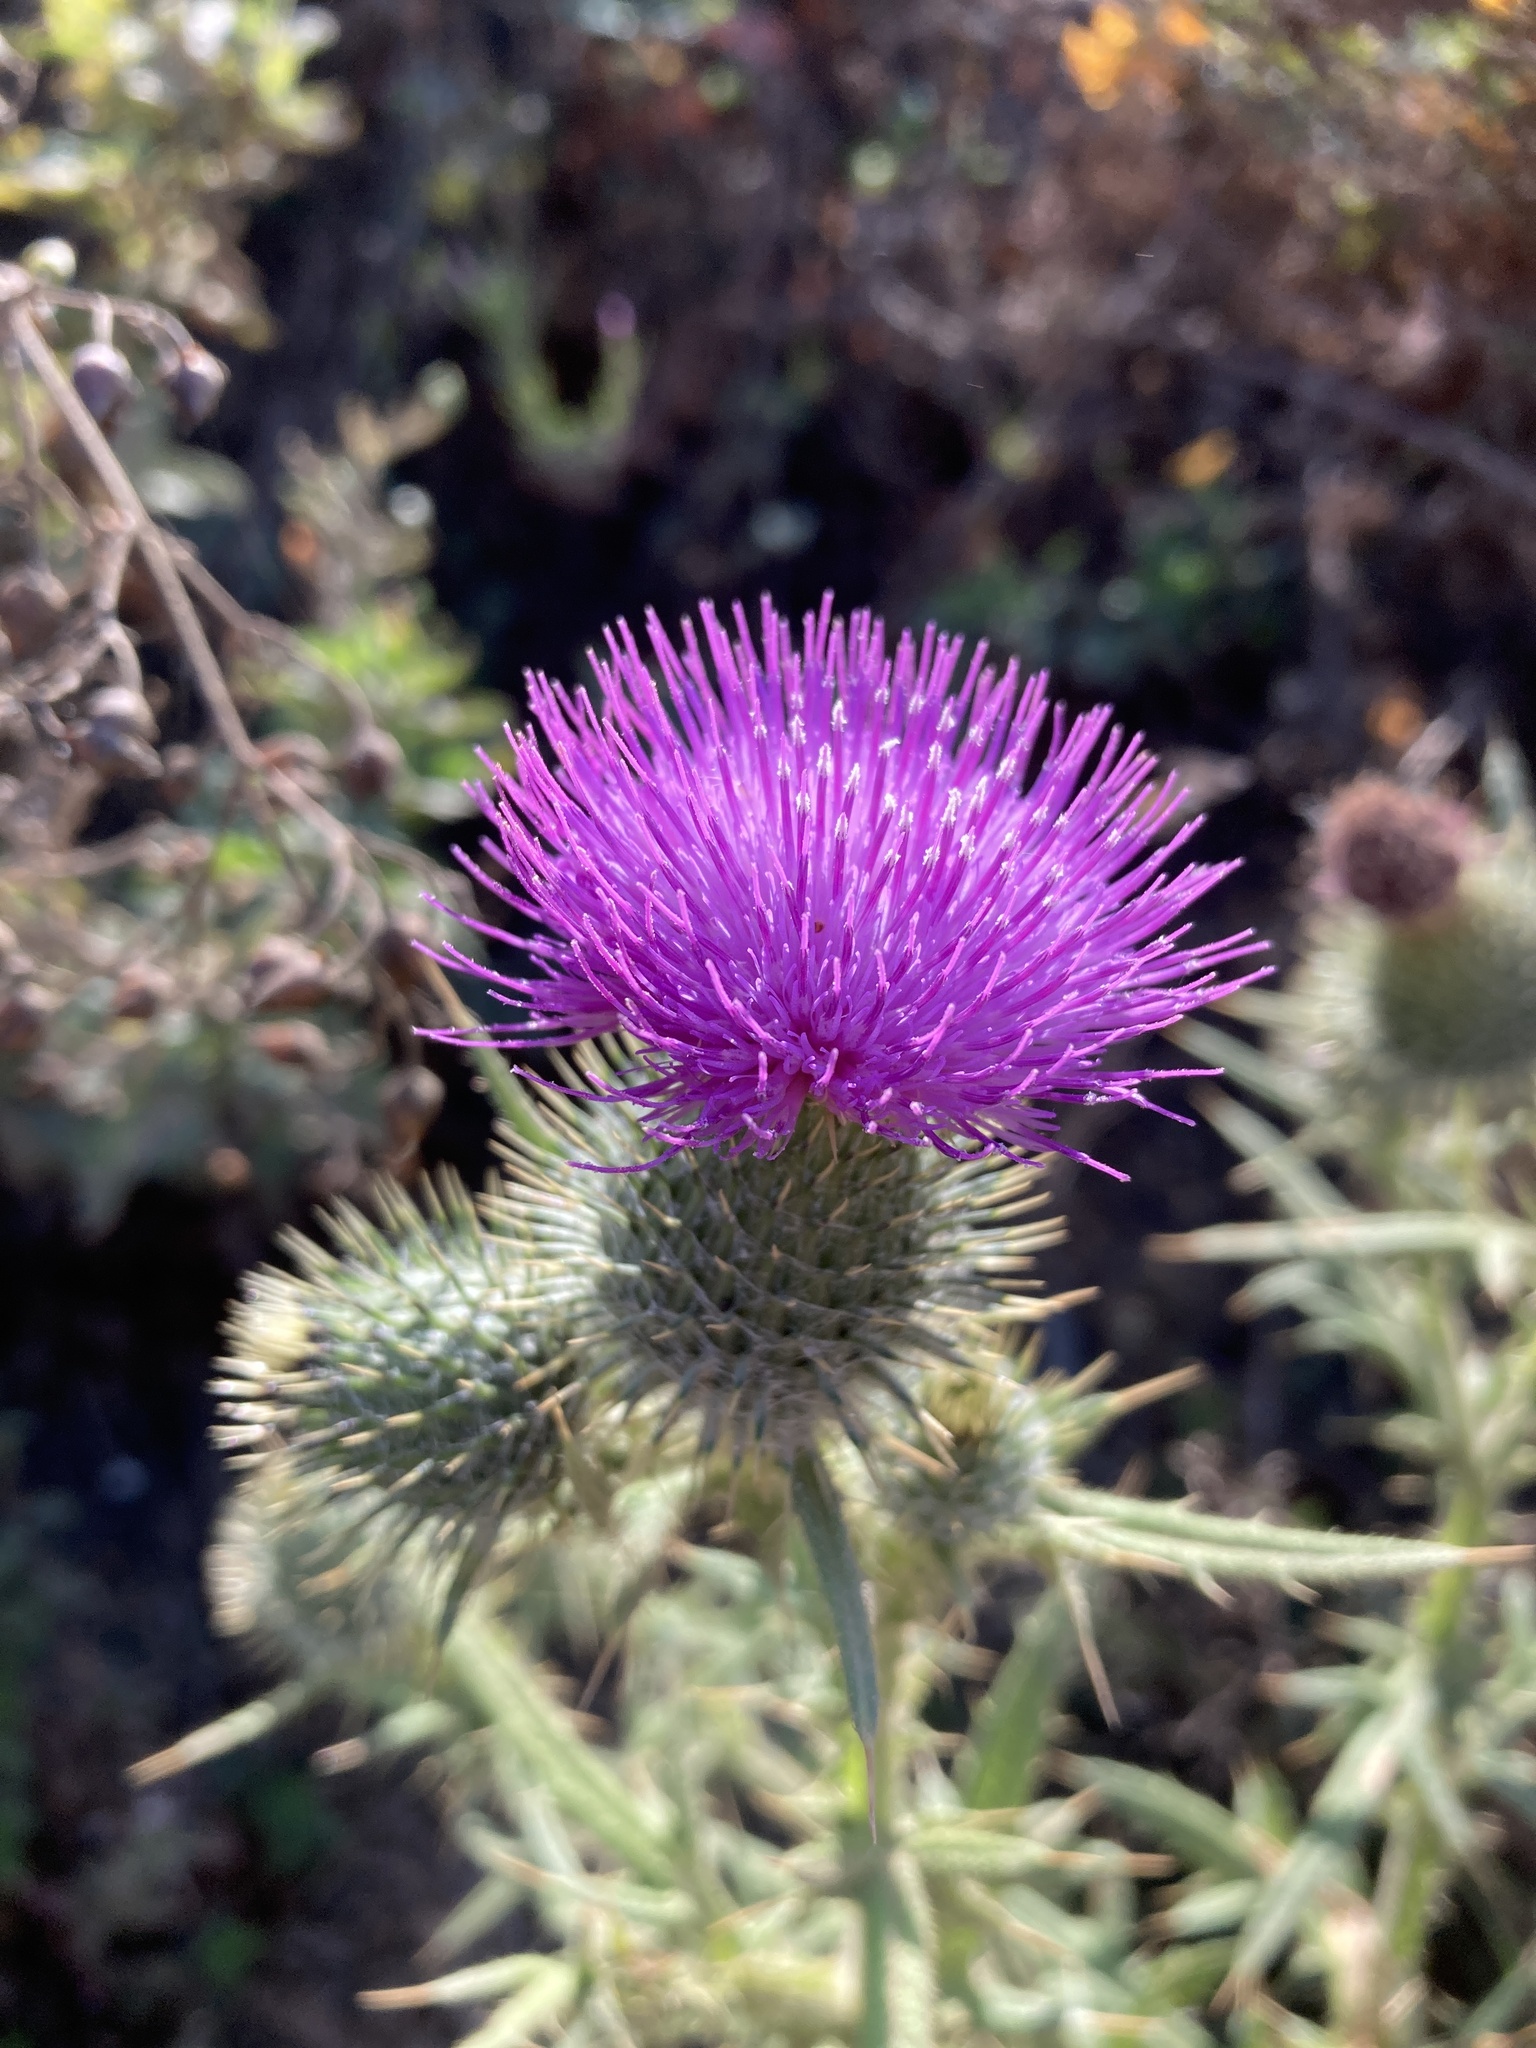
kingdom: Plantae
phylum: Tracheophyta
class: Magnoliopsida
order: Asterales
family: Asteraceae
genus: Cirsium
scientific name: Cirsium vulgare
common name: Bull thistle
